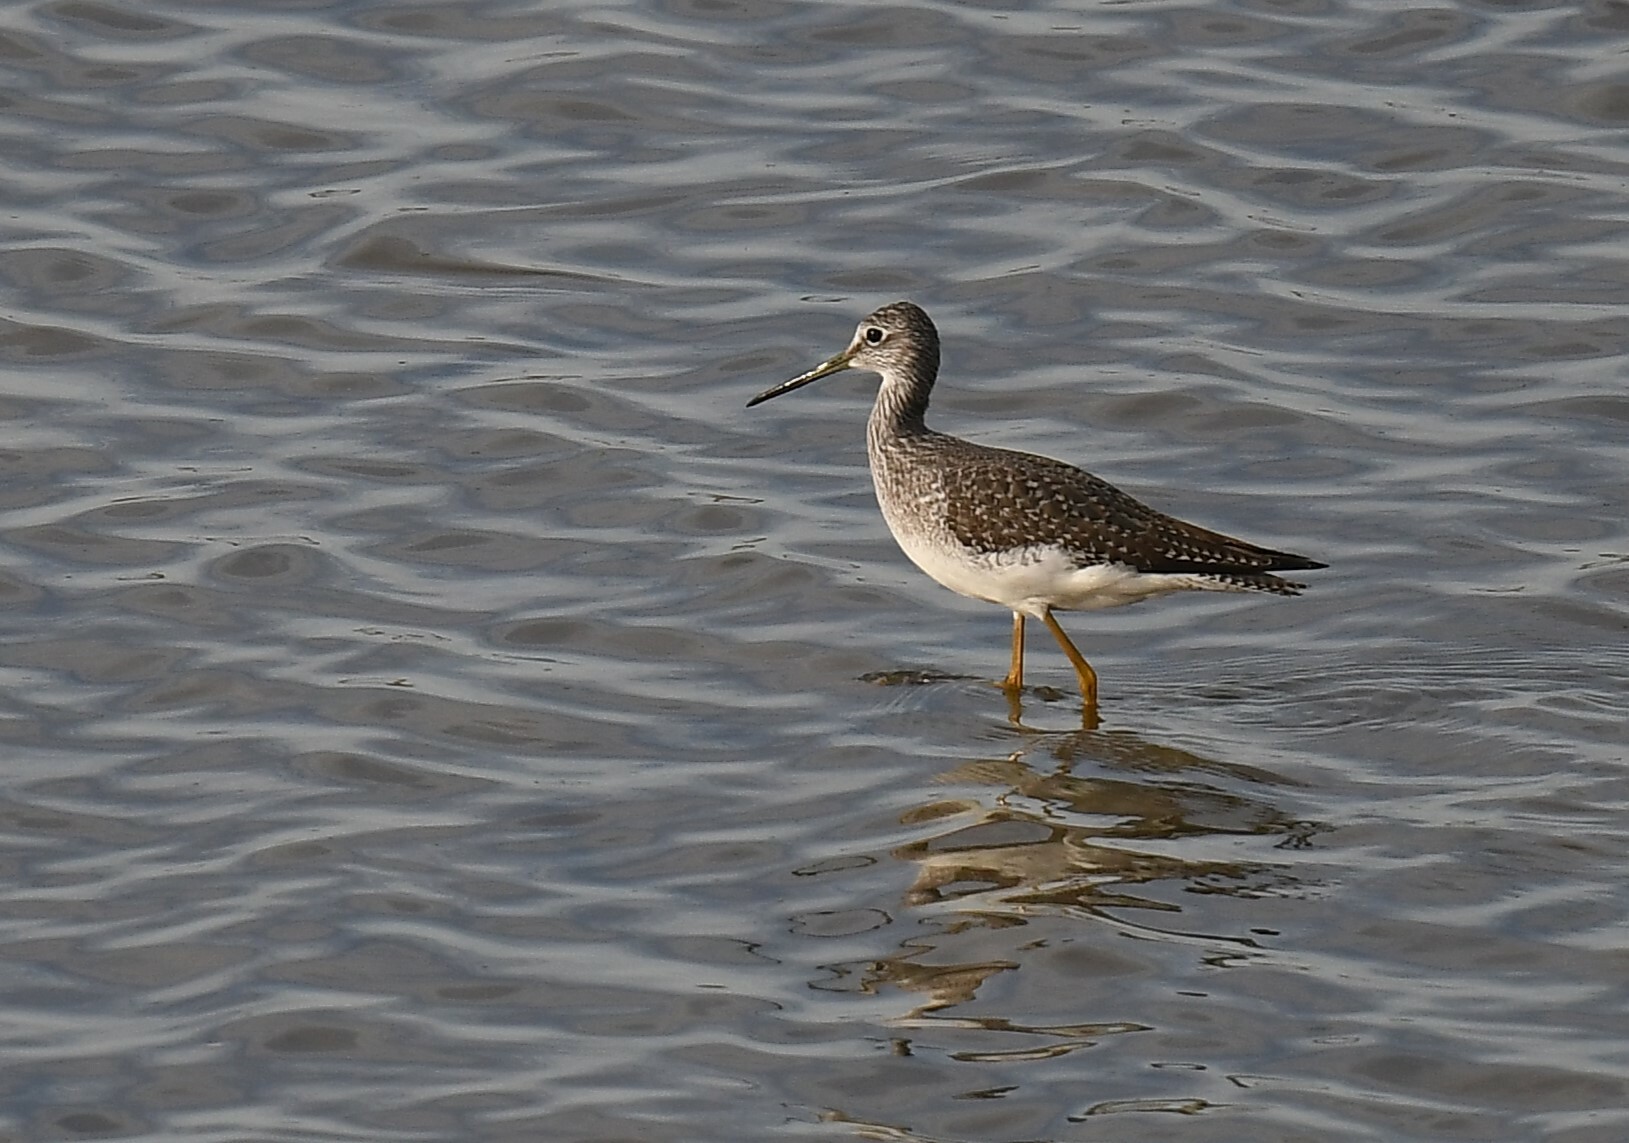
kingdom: Animalia
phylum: Chordata
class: Aves
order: Charadriiformes
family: Scolopacidae
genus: Tringa
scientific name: Tringa melanoleuca
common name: Greater yellowlegs
